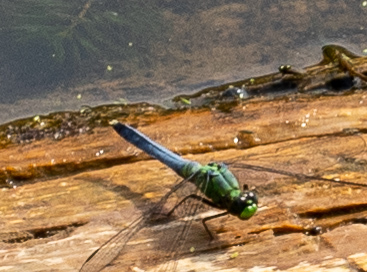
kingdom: Animalia
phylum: Arthropoda
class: Insecta
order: Odonata
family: Libellulidae
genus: Erythemis
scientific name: Erythemis simplicicollis
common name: Eastern pondhawk
